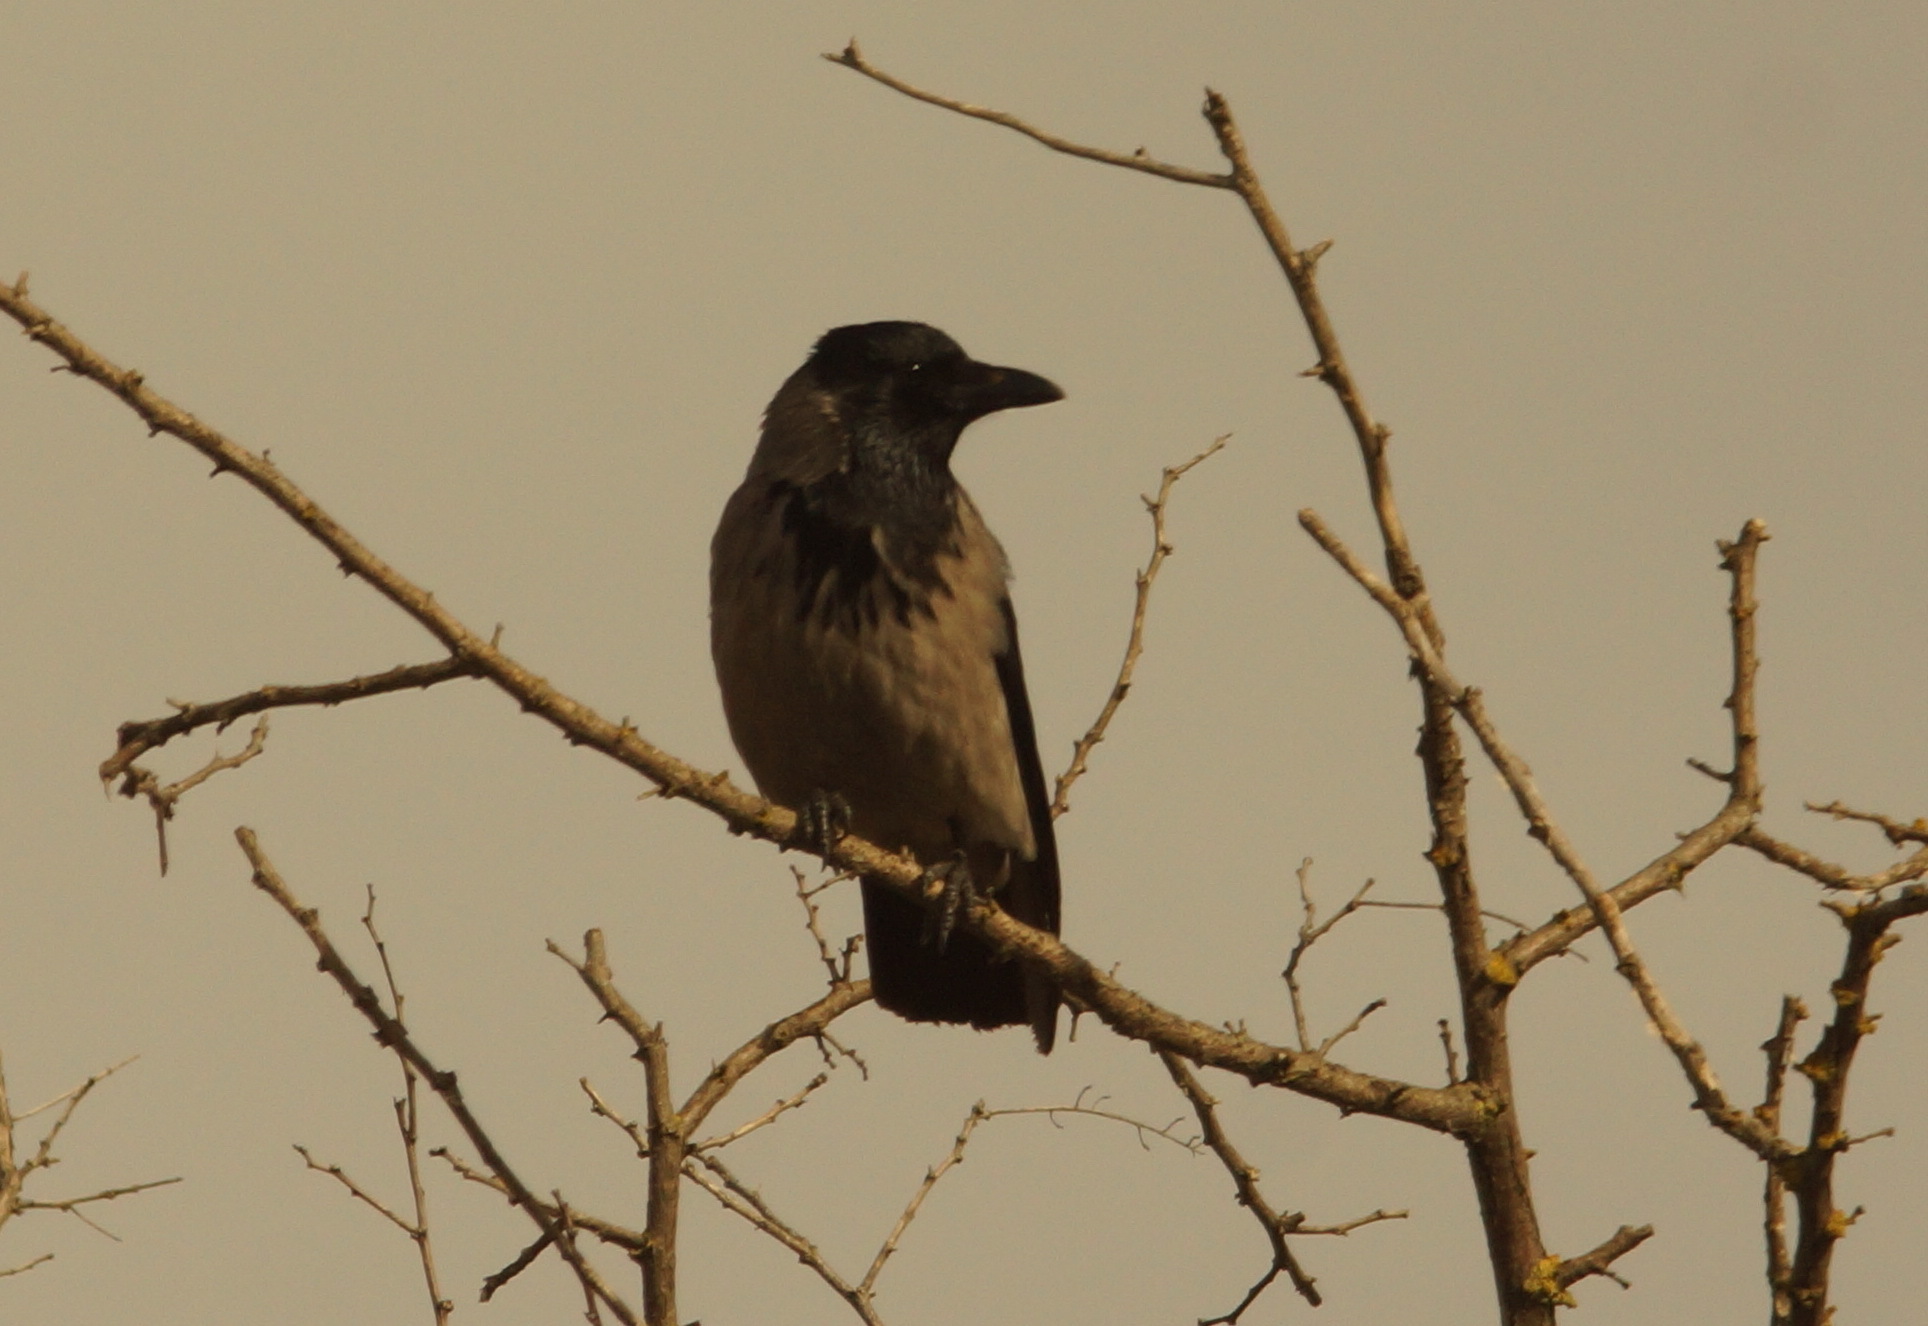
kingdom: Animalia
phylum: Chordata
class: Aves
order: Passeriformes
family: Corvidae
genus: Corvus
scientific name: Corvus cornix
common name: Hooded crow
